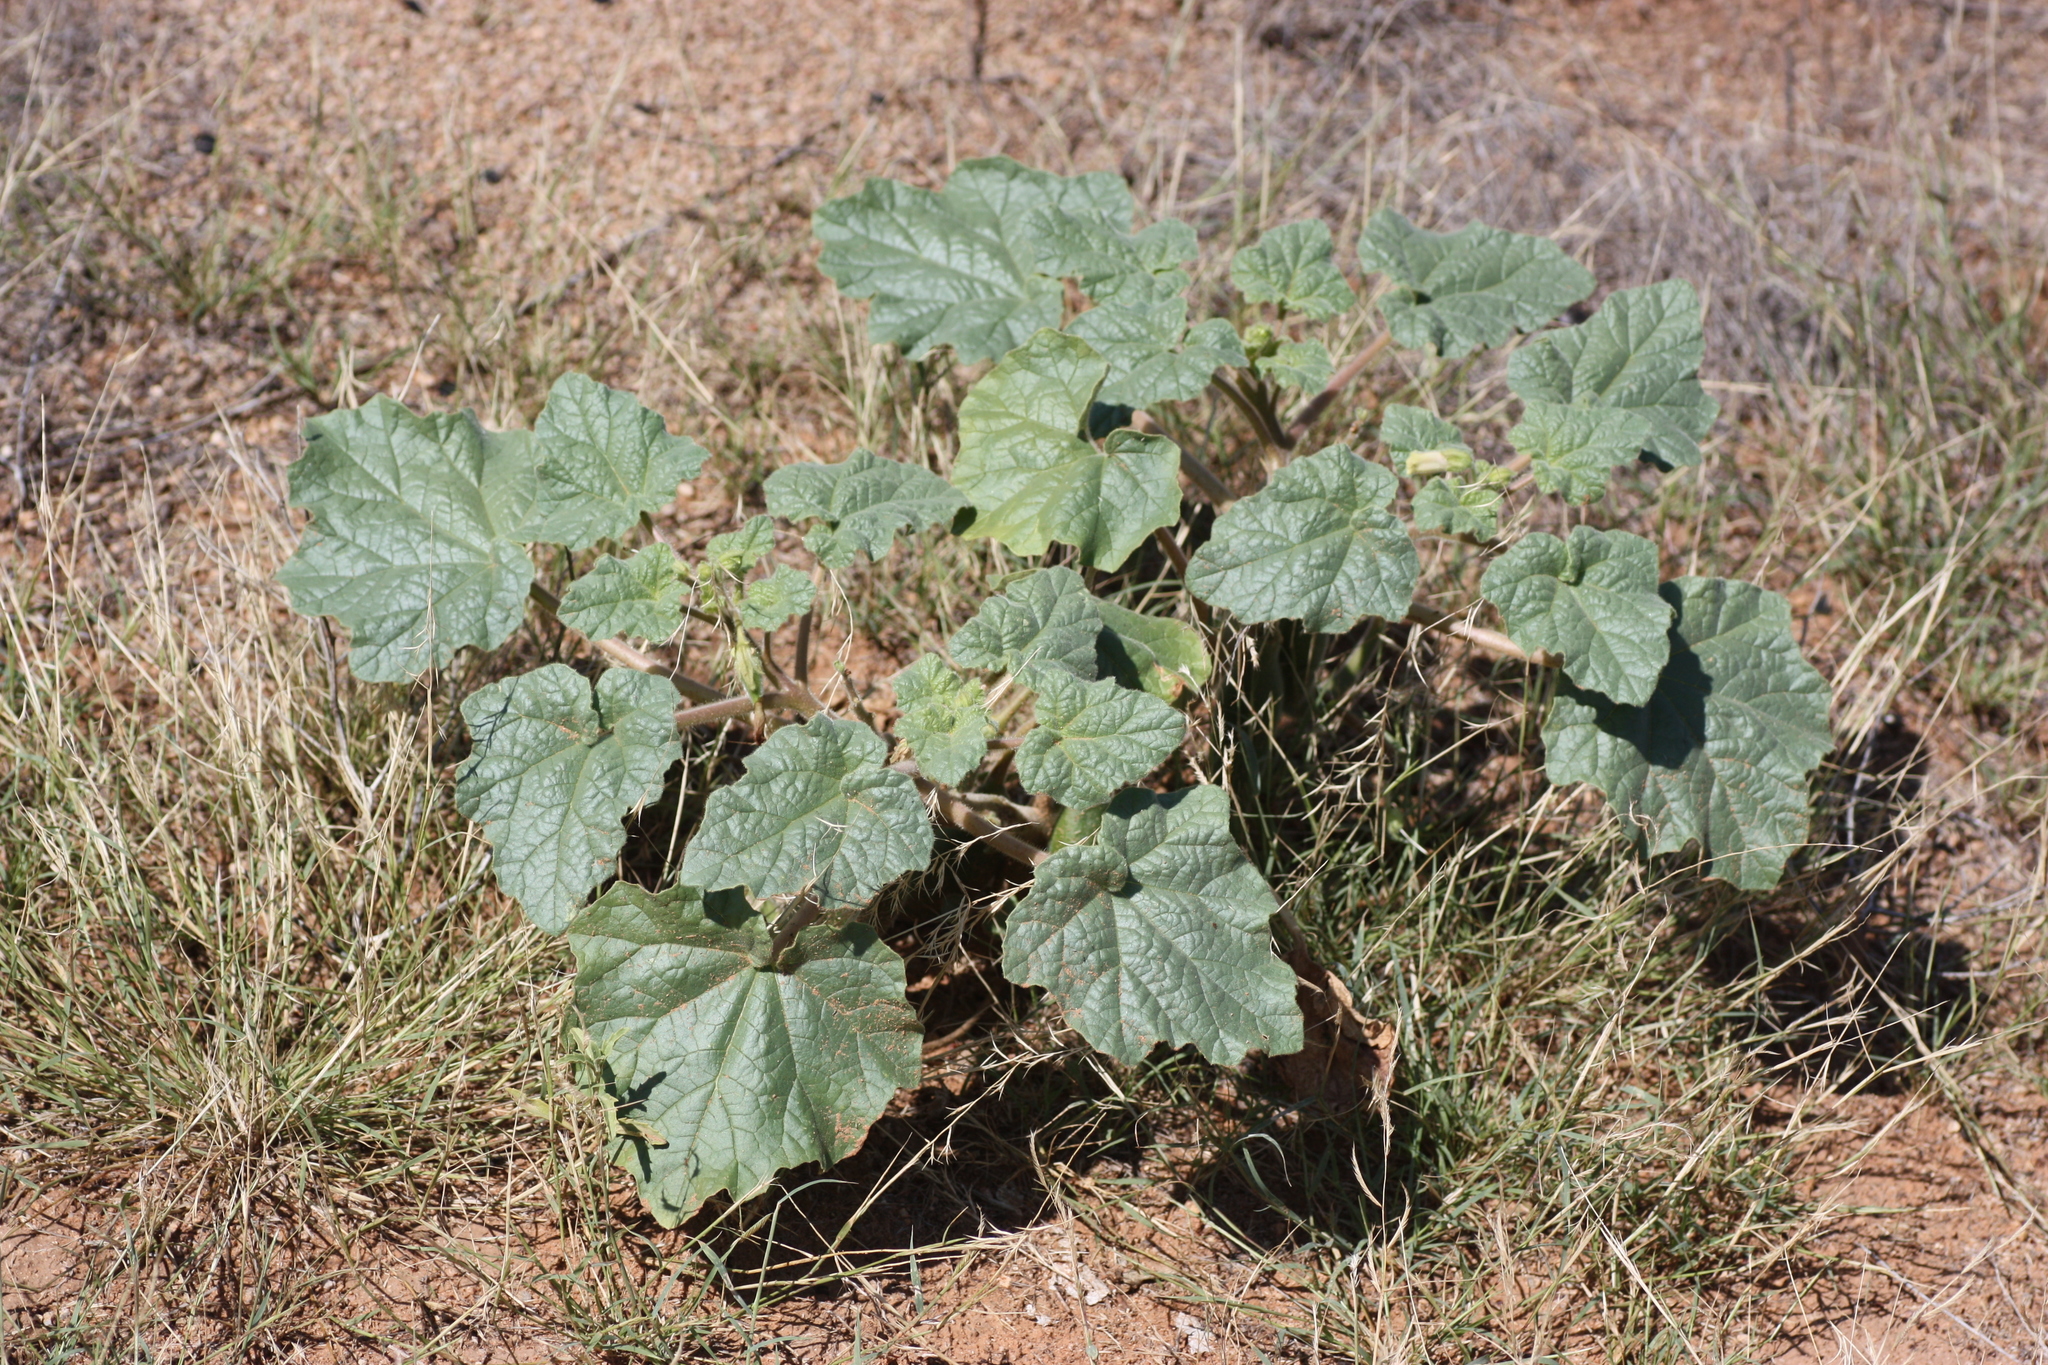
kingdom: Plantae
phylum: Tracheophyta
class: Magnoliopsida
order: Lamiales
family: Martyniaceae
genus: Proboscidea
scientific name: Proboscidea parviflora
